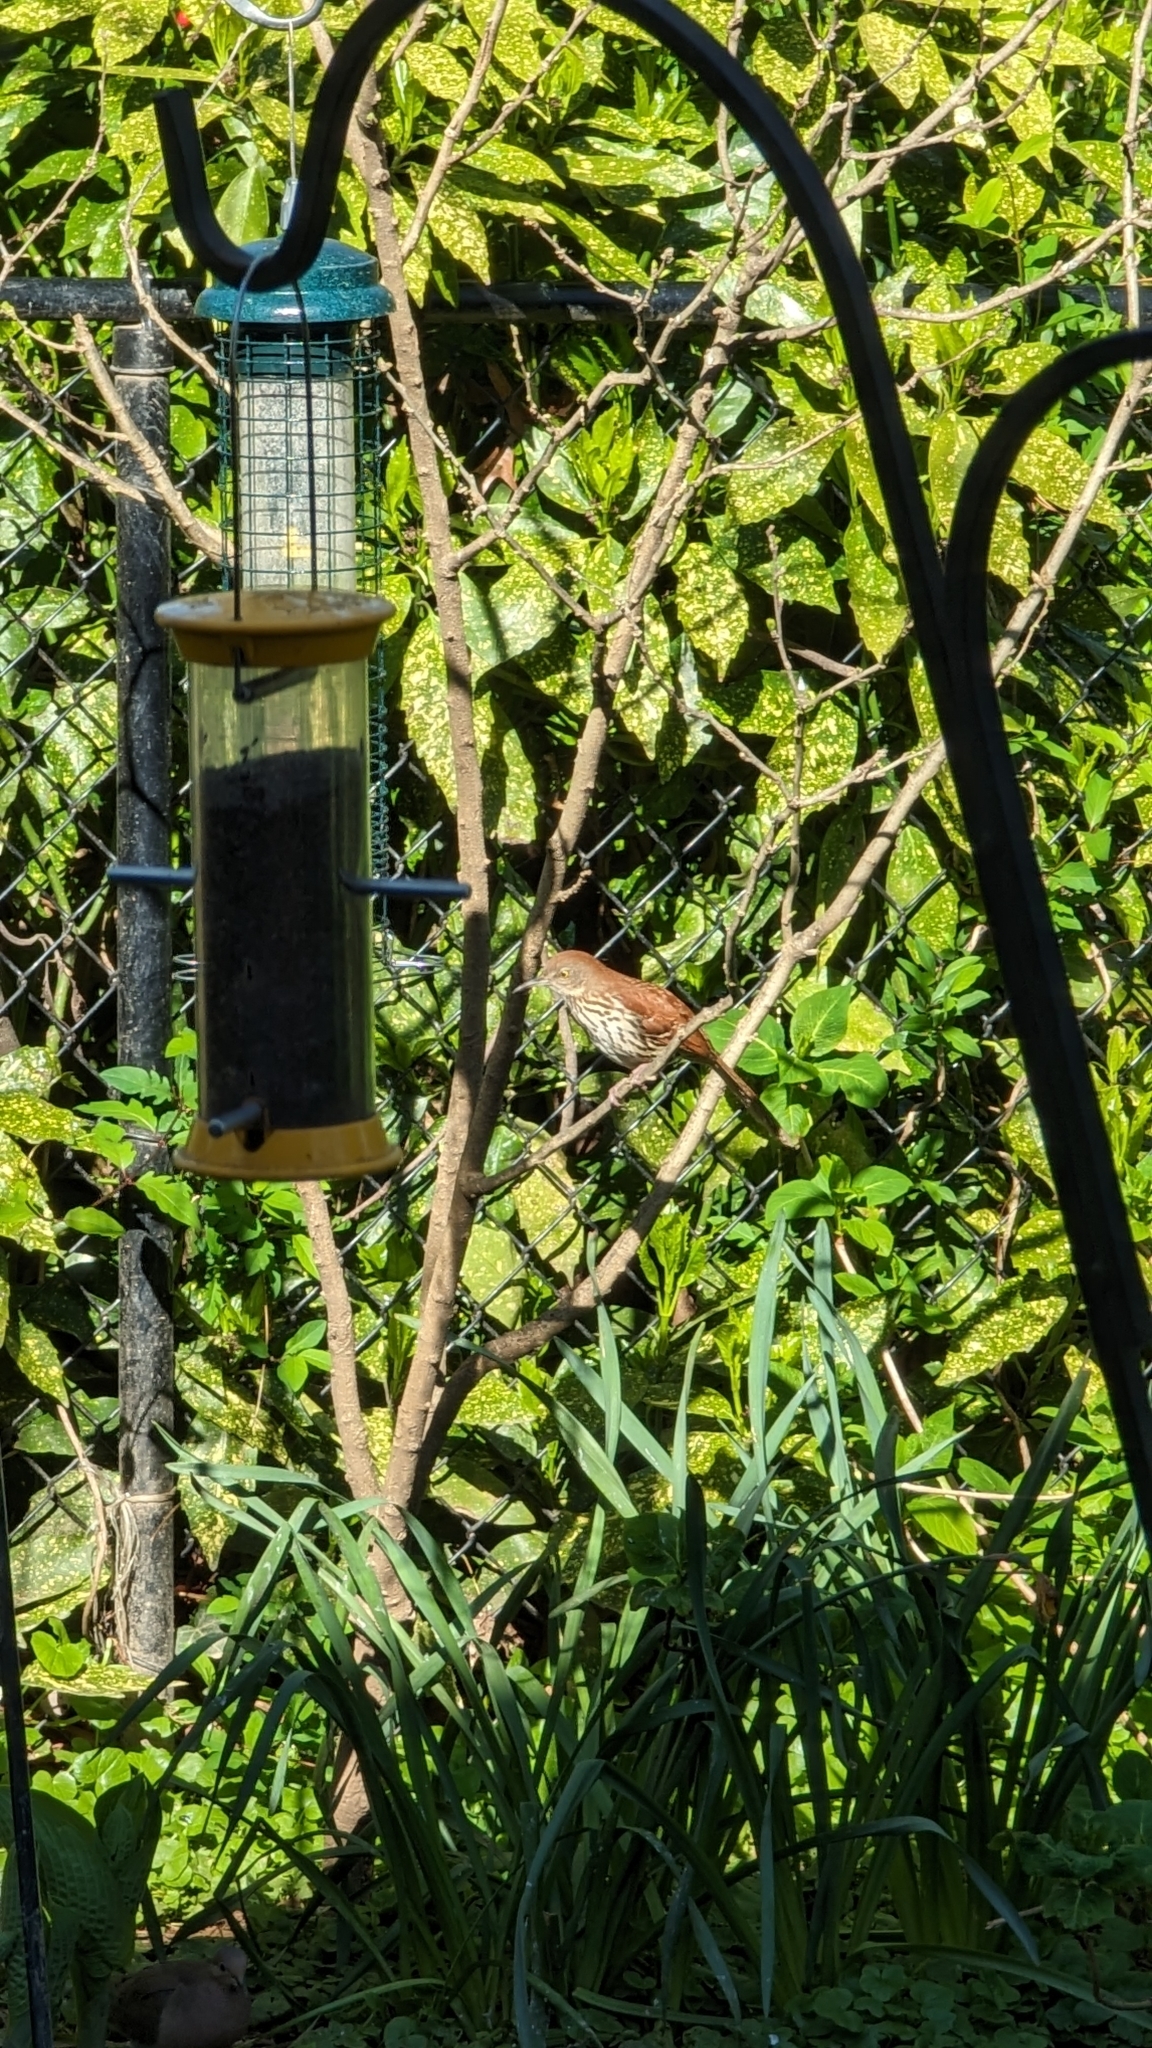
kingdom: Animalia
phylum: Chordata
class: Aves
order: Passeriformes
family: Mimidae
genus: Toxostoma
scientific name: Toxostoma rufum
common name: Brown thrasher
